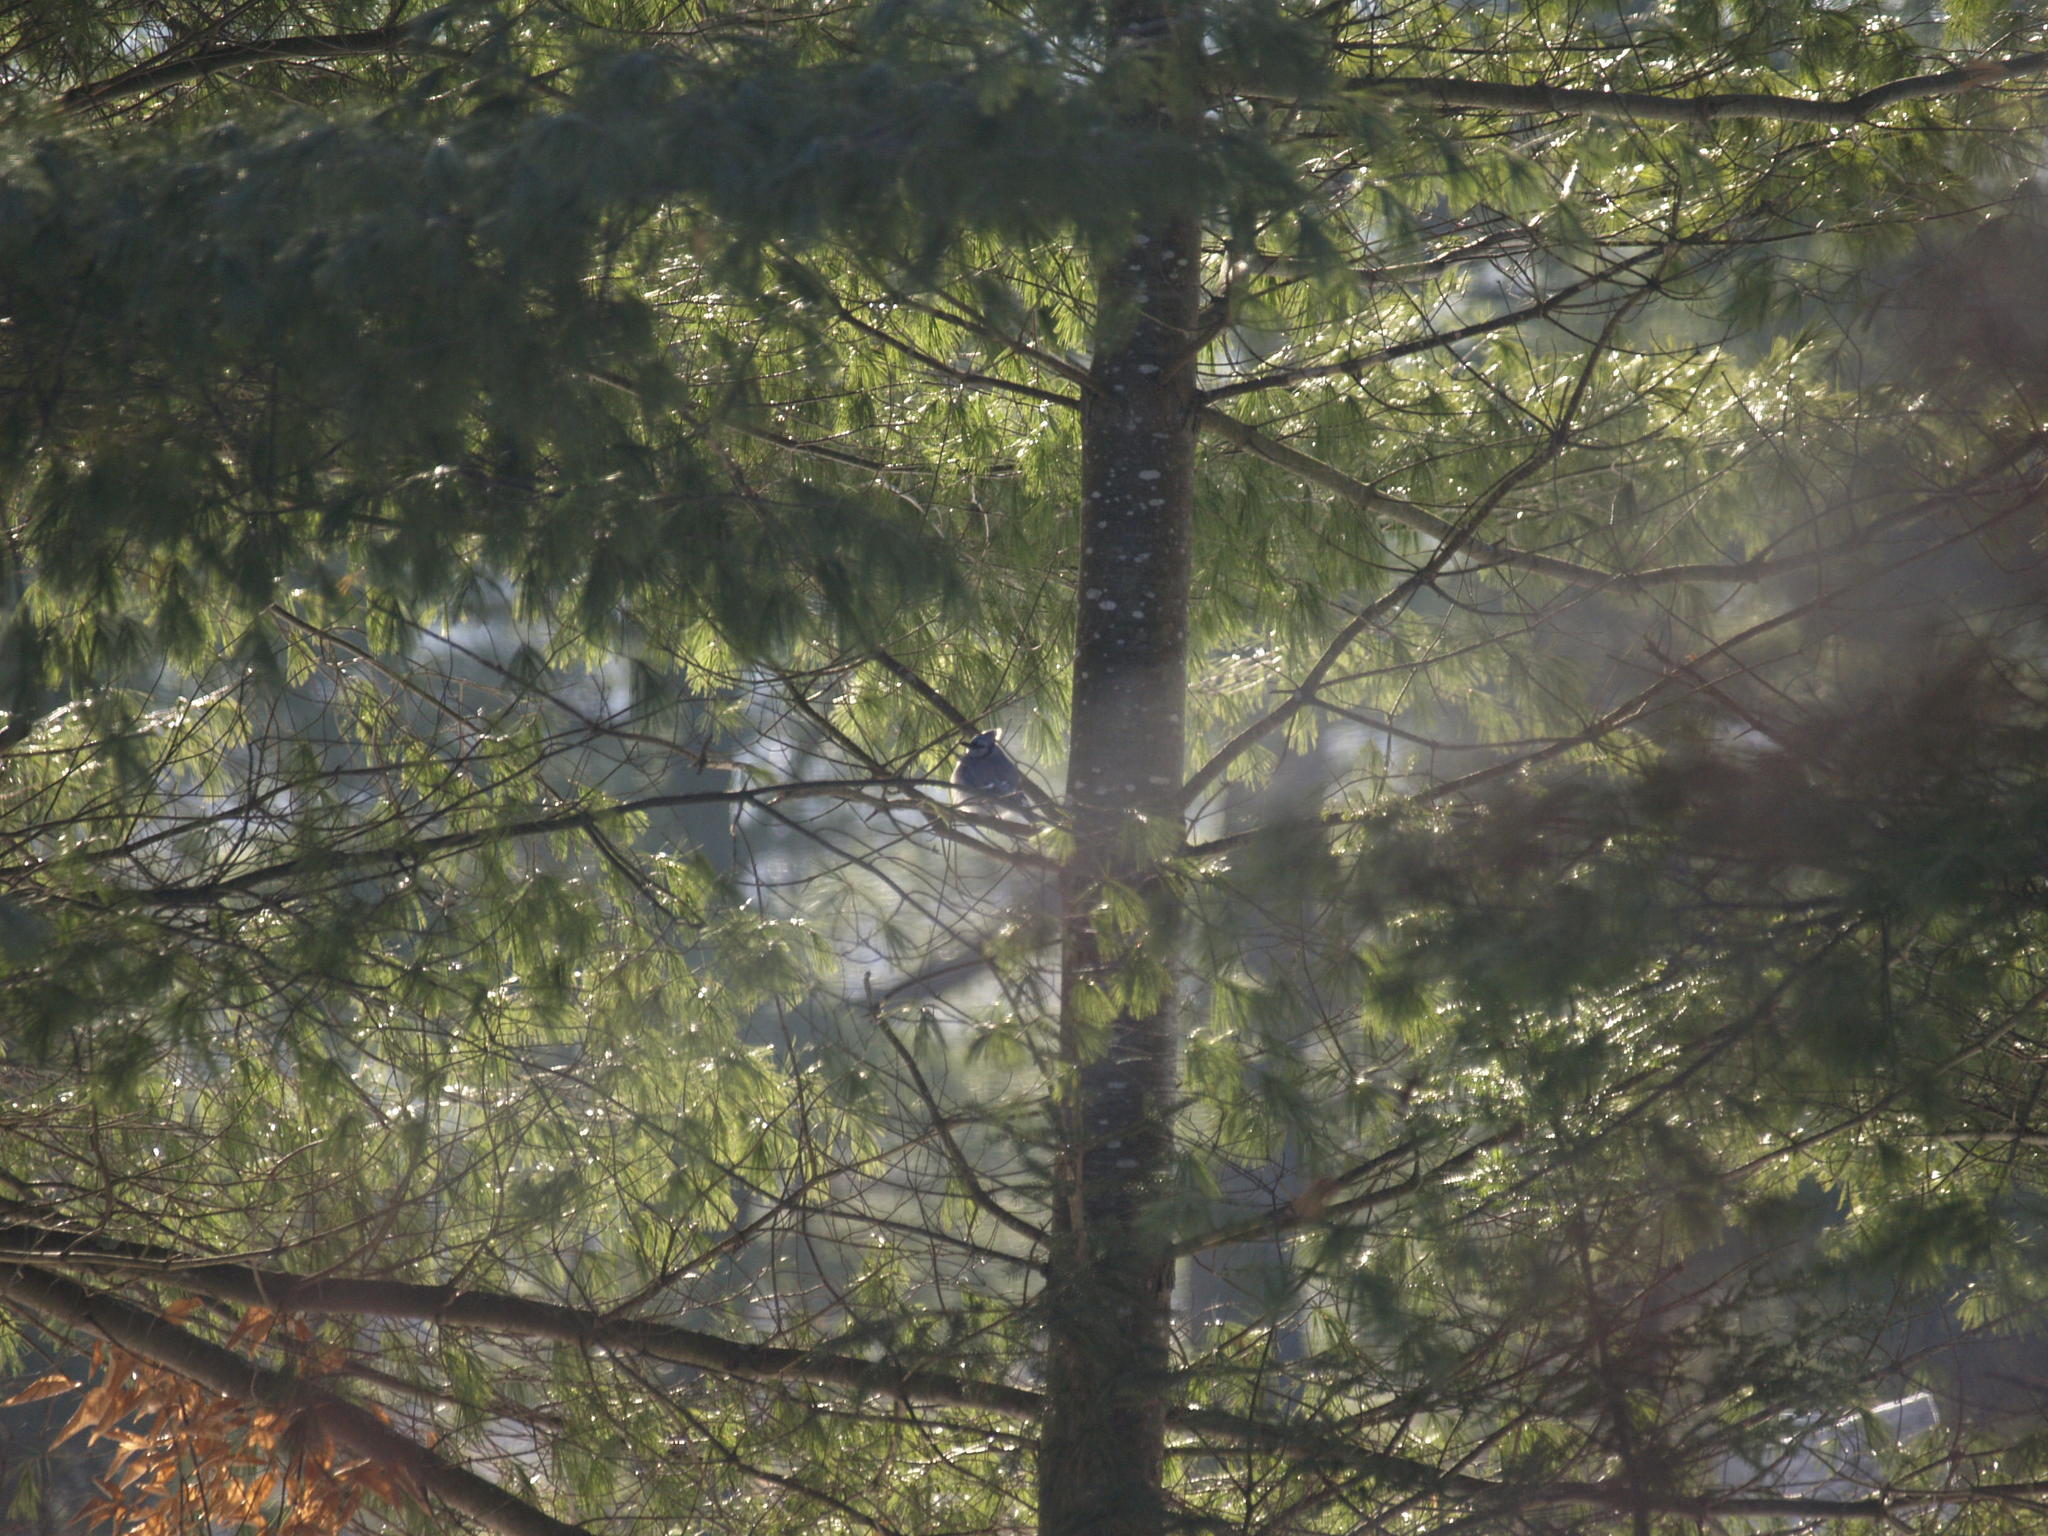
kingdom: Plantae
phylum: Tracheophyta
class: Pinopsida
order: Pinales
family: Pinaceae
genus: Pinus
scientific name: Pinus strobus
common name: Weymouth pine
